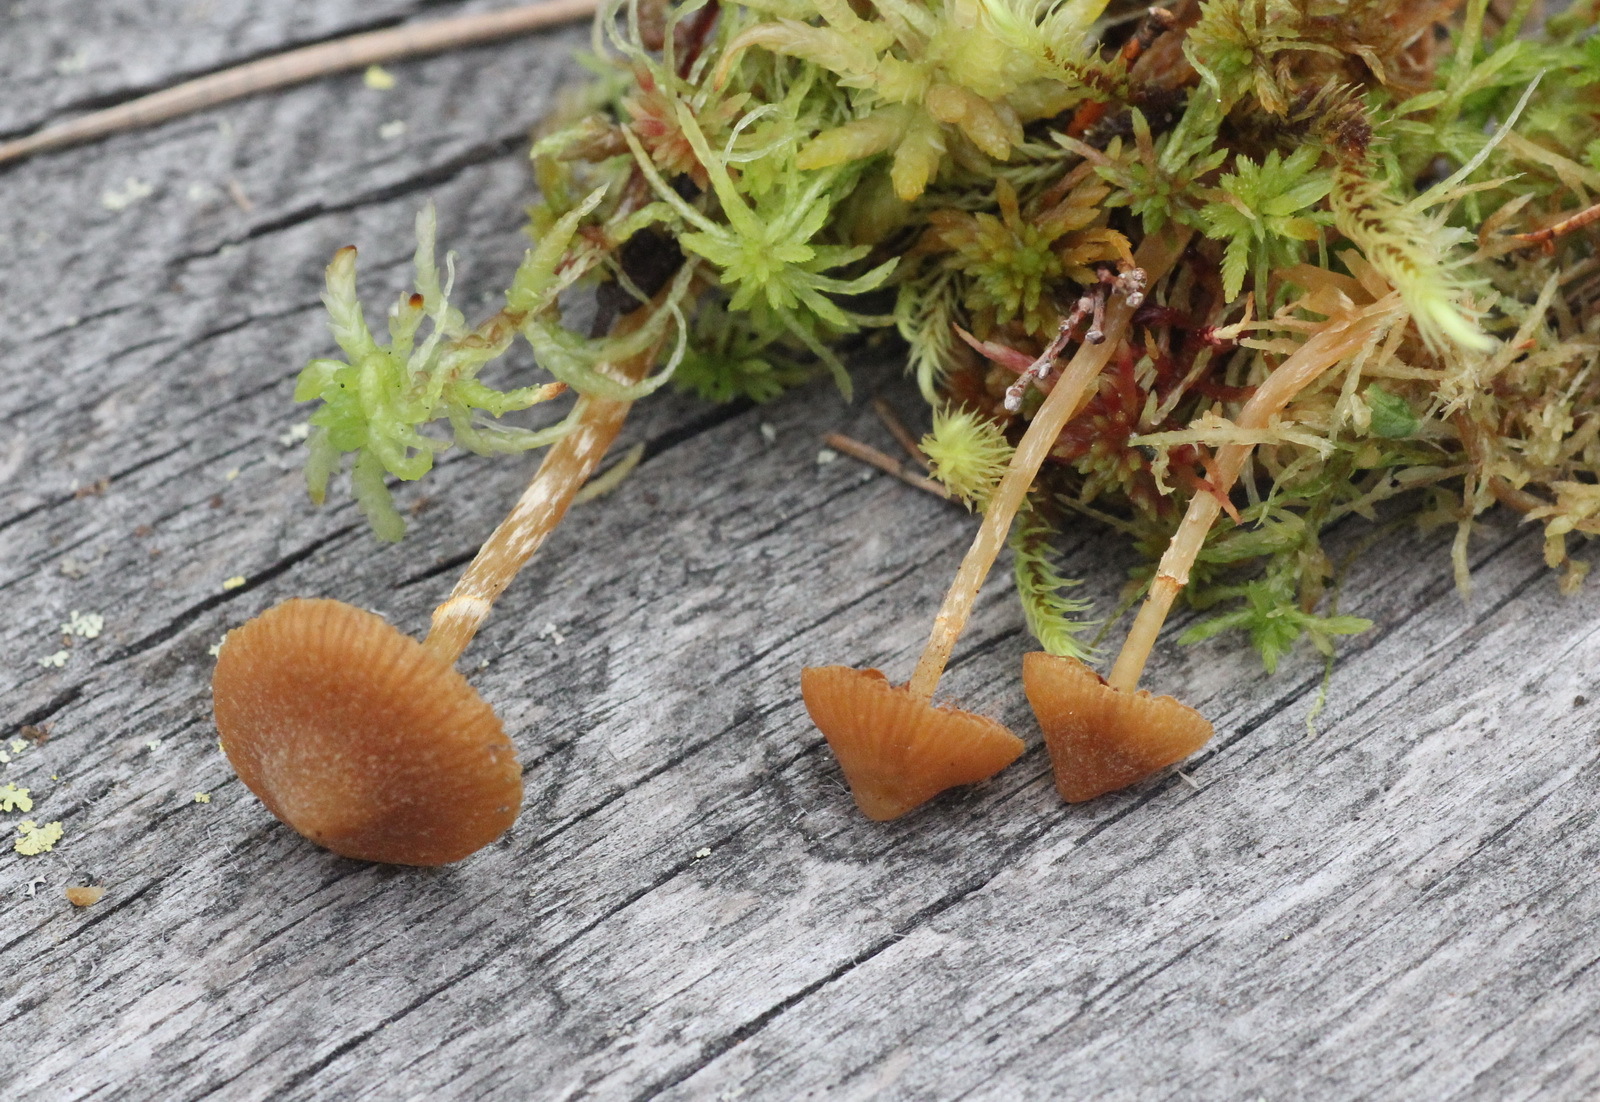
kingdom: Fungi
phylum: Basidiomycota
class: Agaricomycetes
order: Agaricales
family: Hymenogastraceae
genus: Galerina
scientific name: Galerina paludosa
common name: Bog bell
